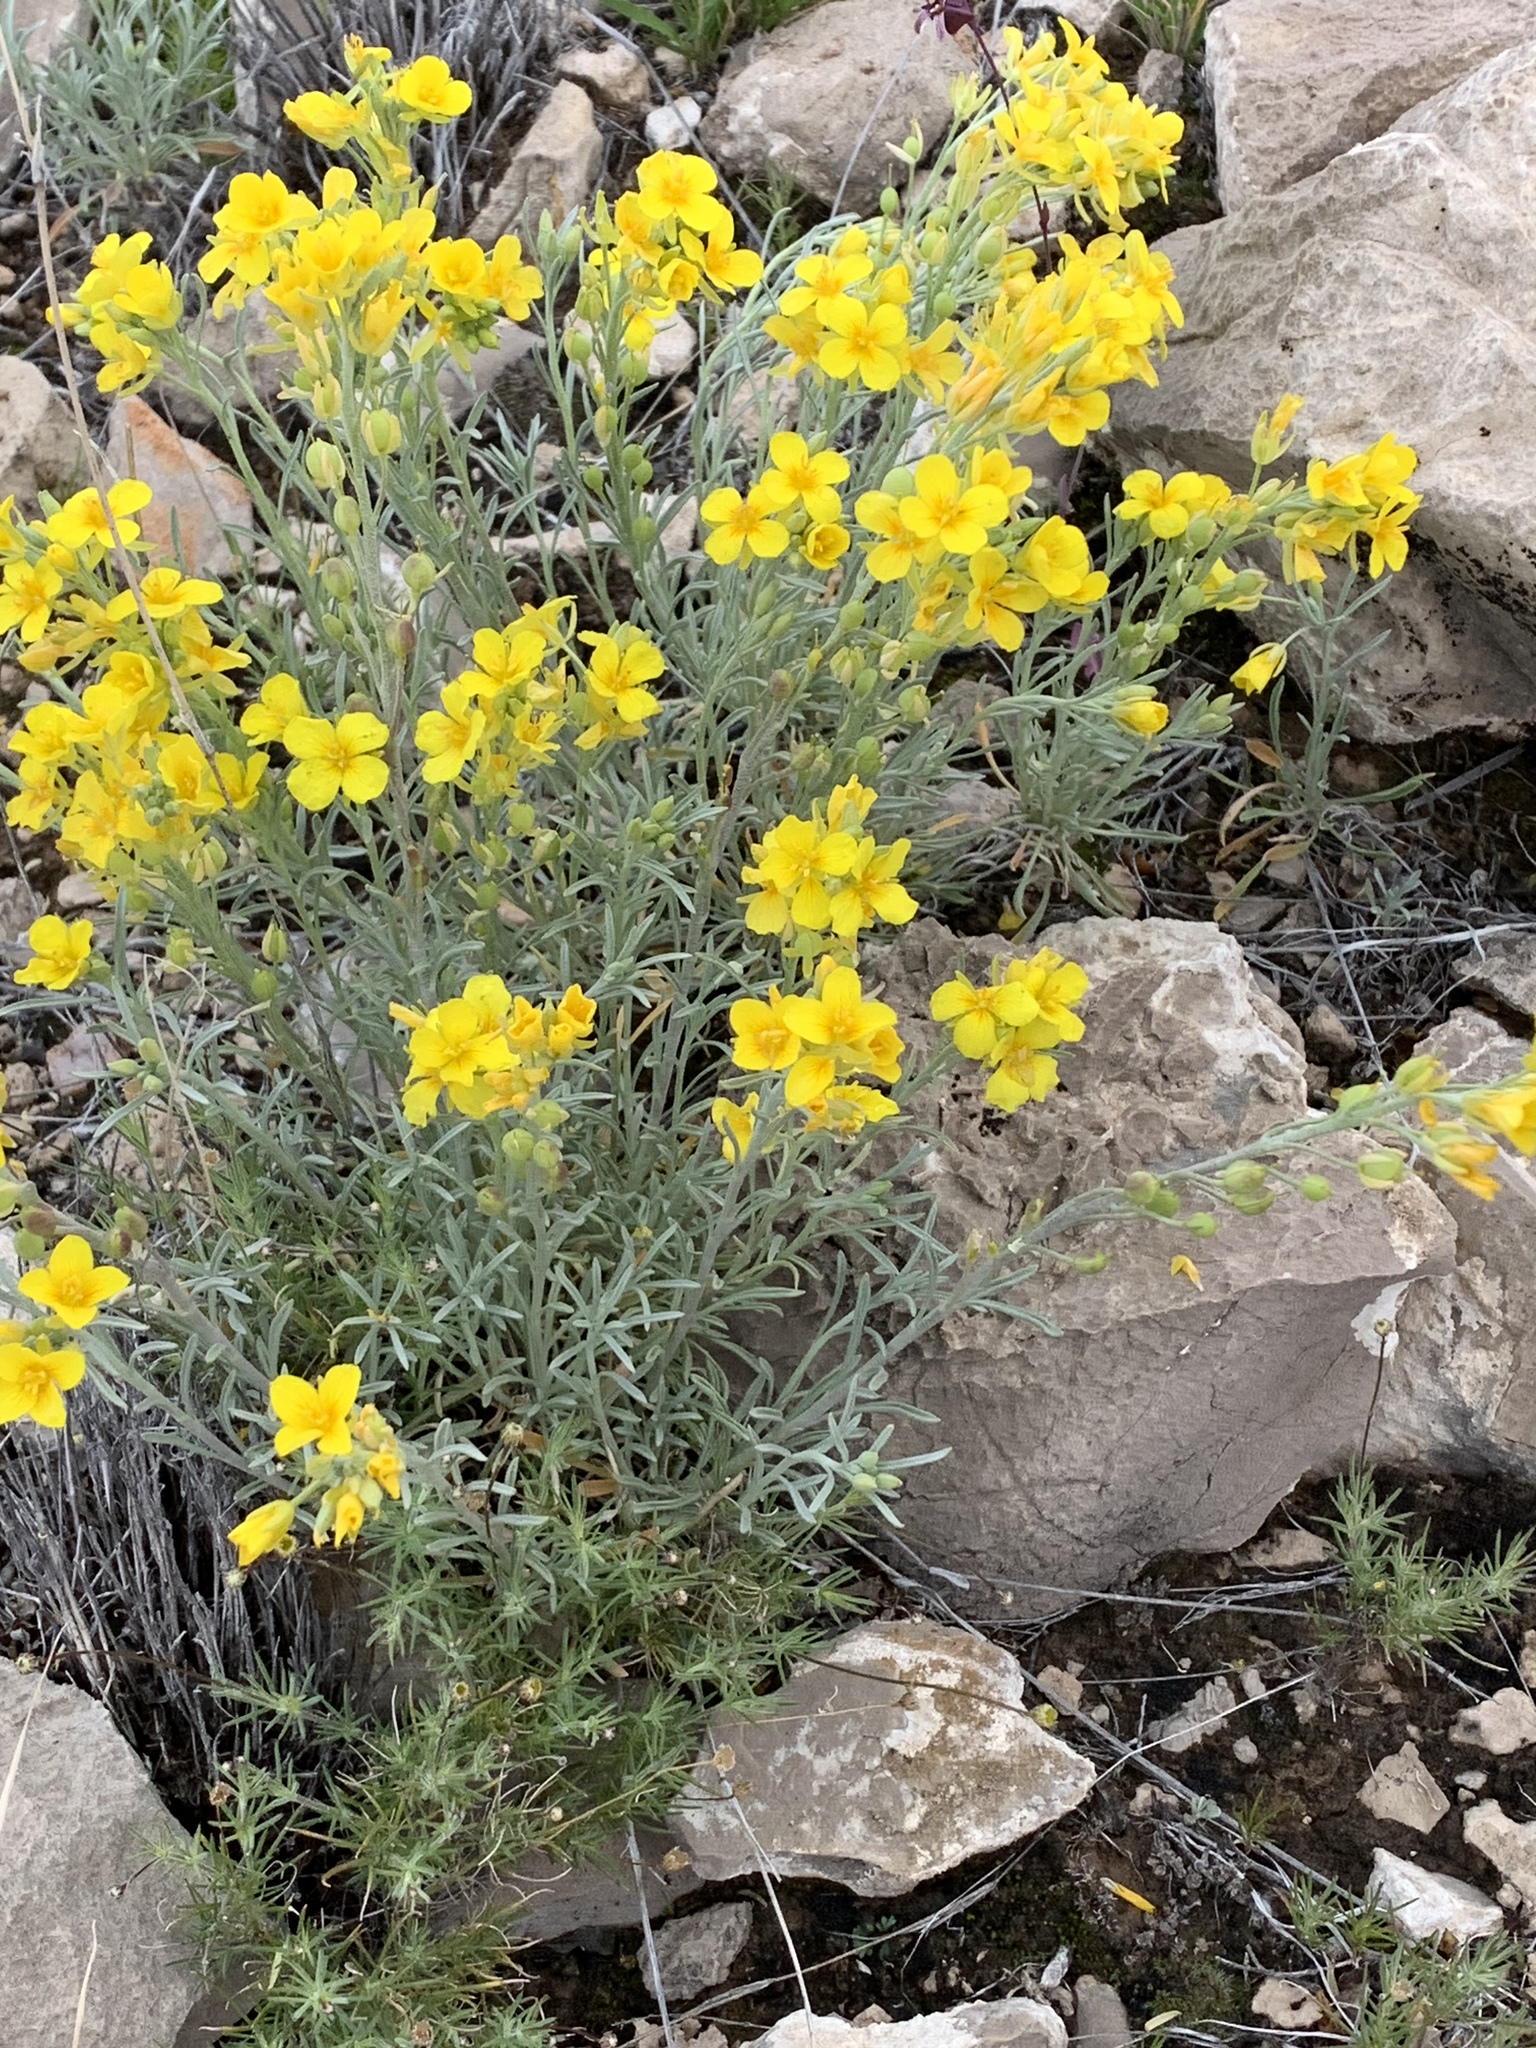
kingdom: Plantae
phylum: Tracheophyta
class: Magnoliopsida
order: Brassicales
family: Brassicaceae
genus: Physaria
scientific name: Physaria fendleri
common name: Fendler's bladderpod
